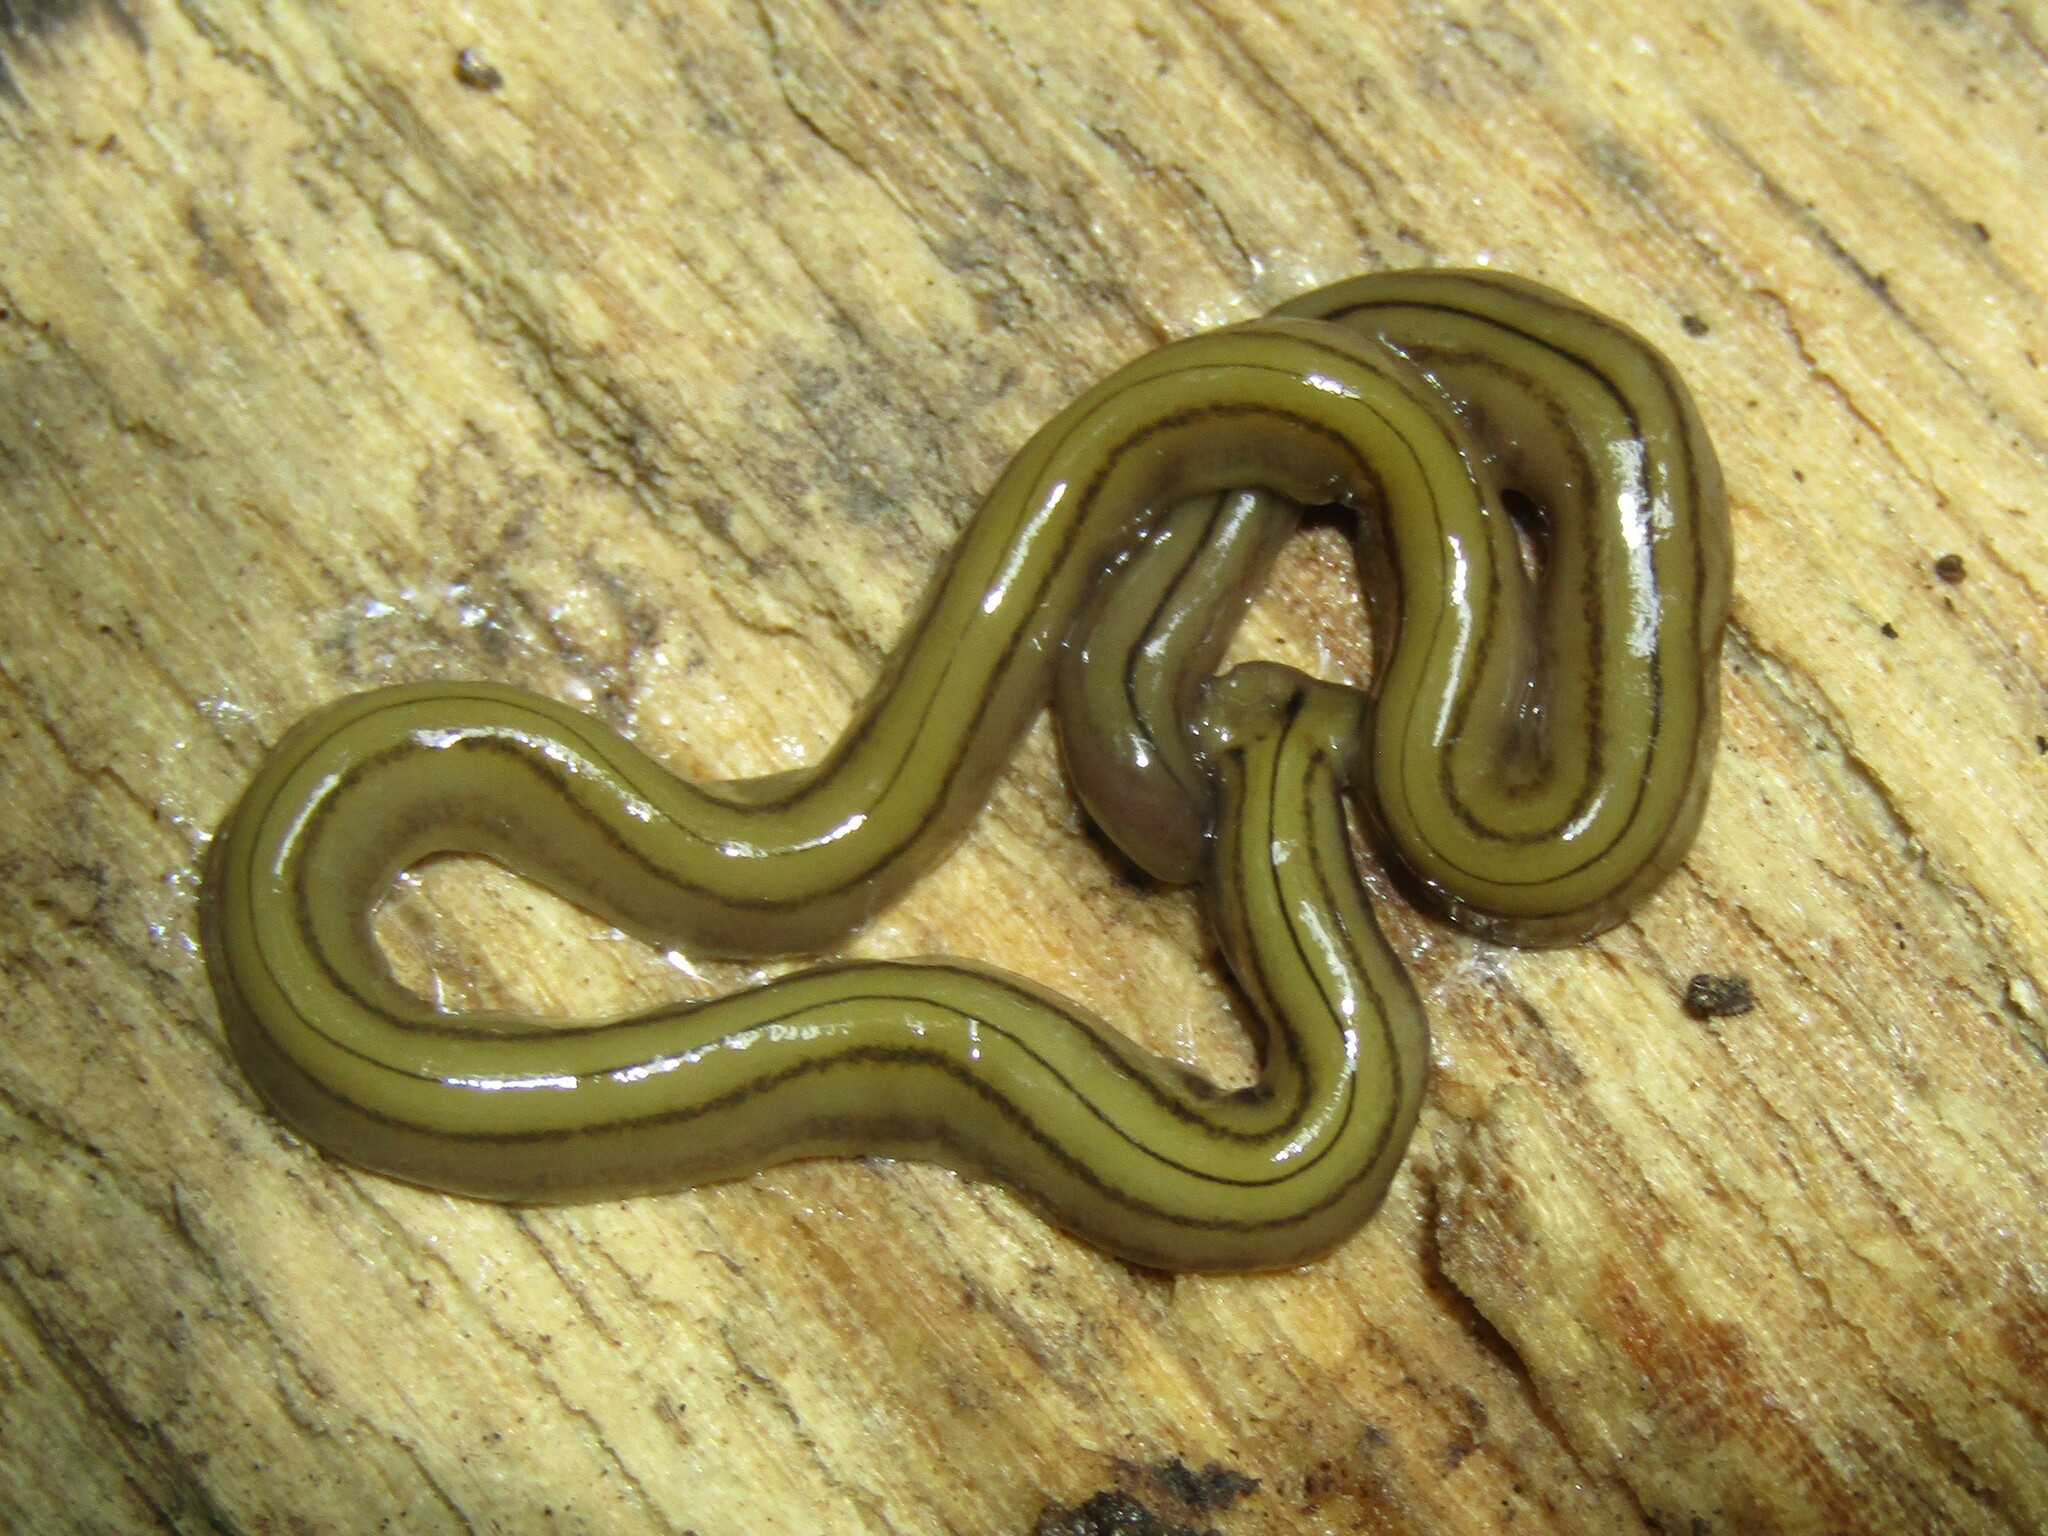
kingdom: Animalia
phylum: Platyhelminthes
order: Tricladida
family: Geoplanidae
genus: Diversibipalium
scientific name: Diversibipalium multilineatum
